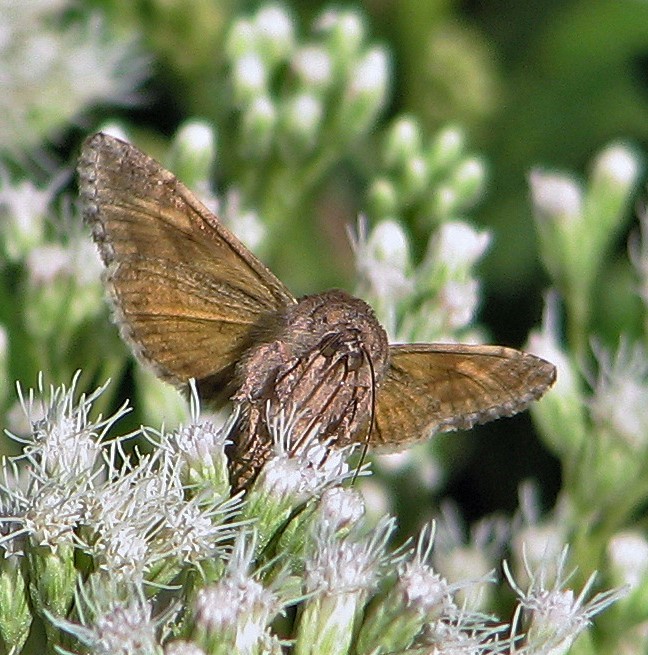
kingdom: Animalia
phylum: Arthropoda
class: Insecta
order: Lepidoptera
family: Noctuidae
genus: Rachiplusia
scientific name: Rachiplusia nu
